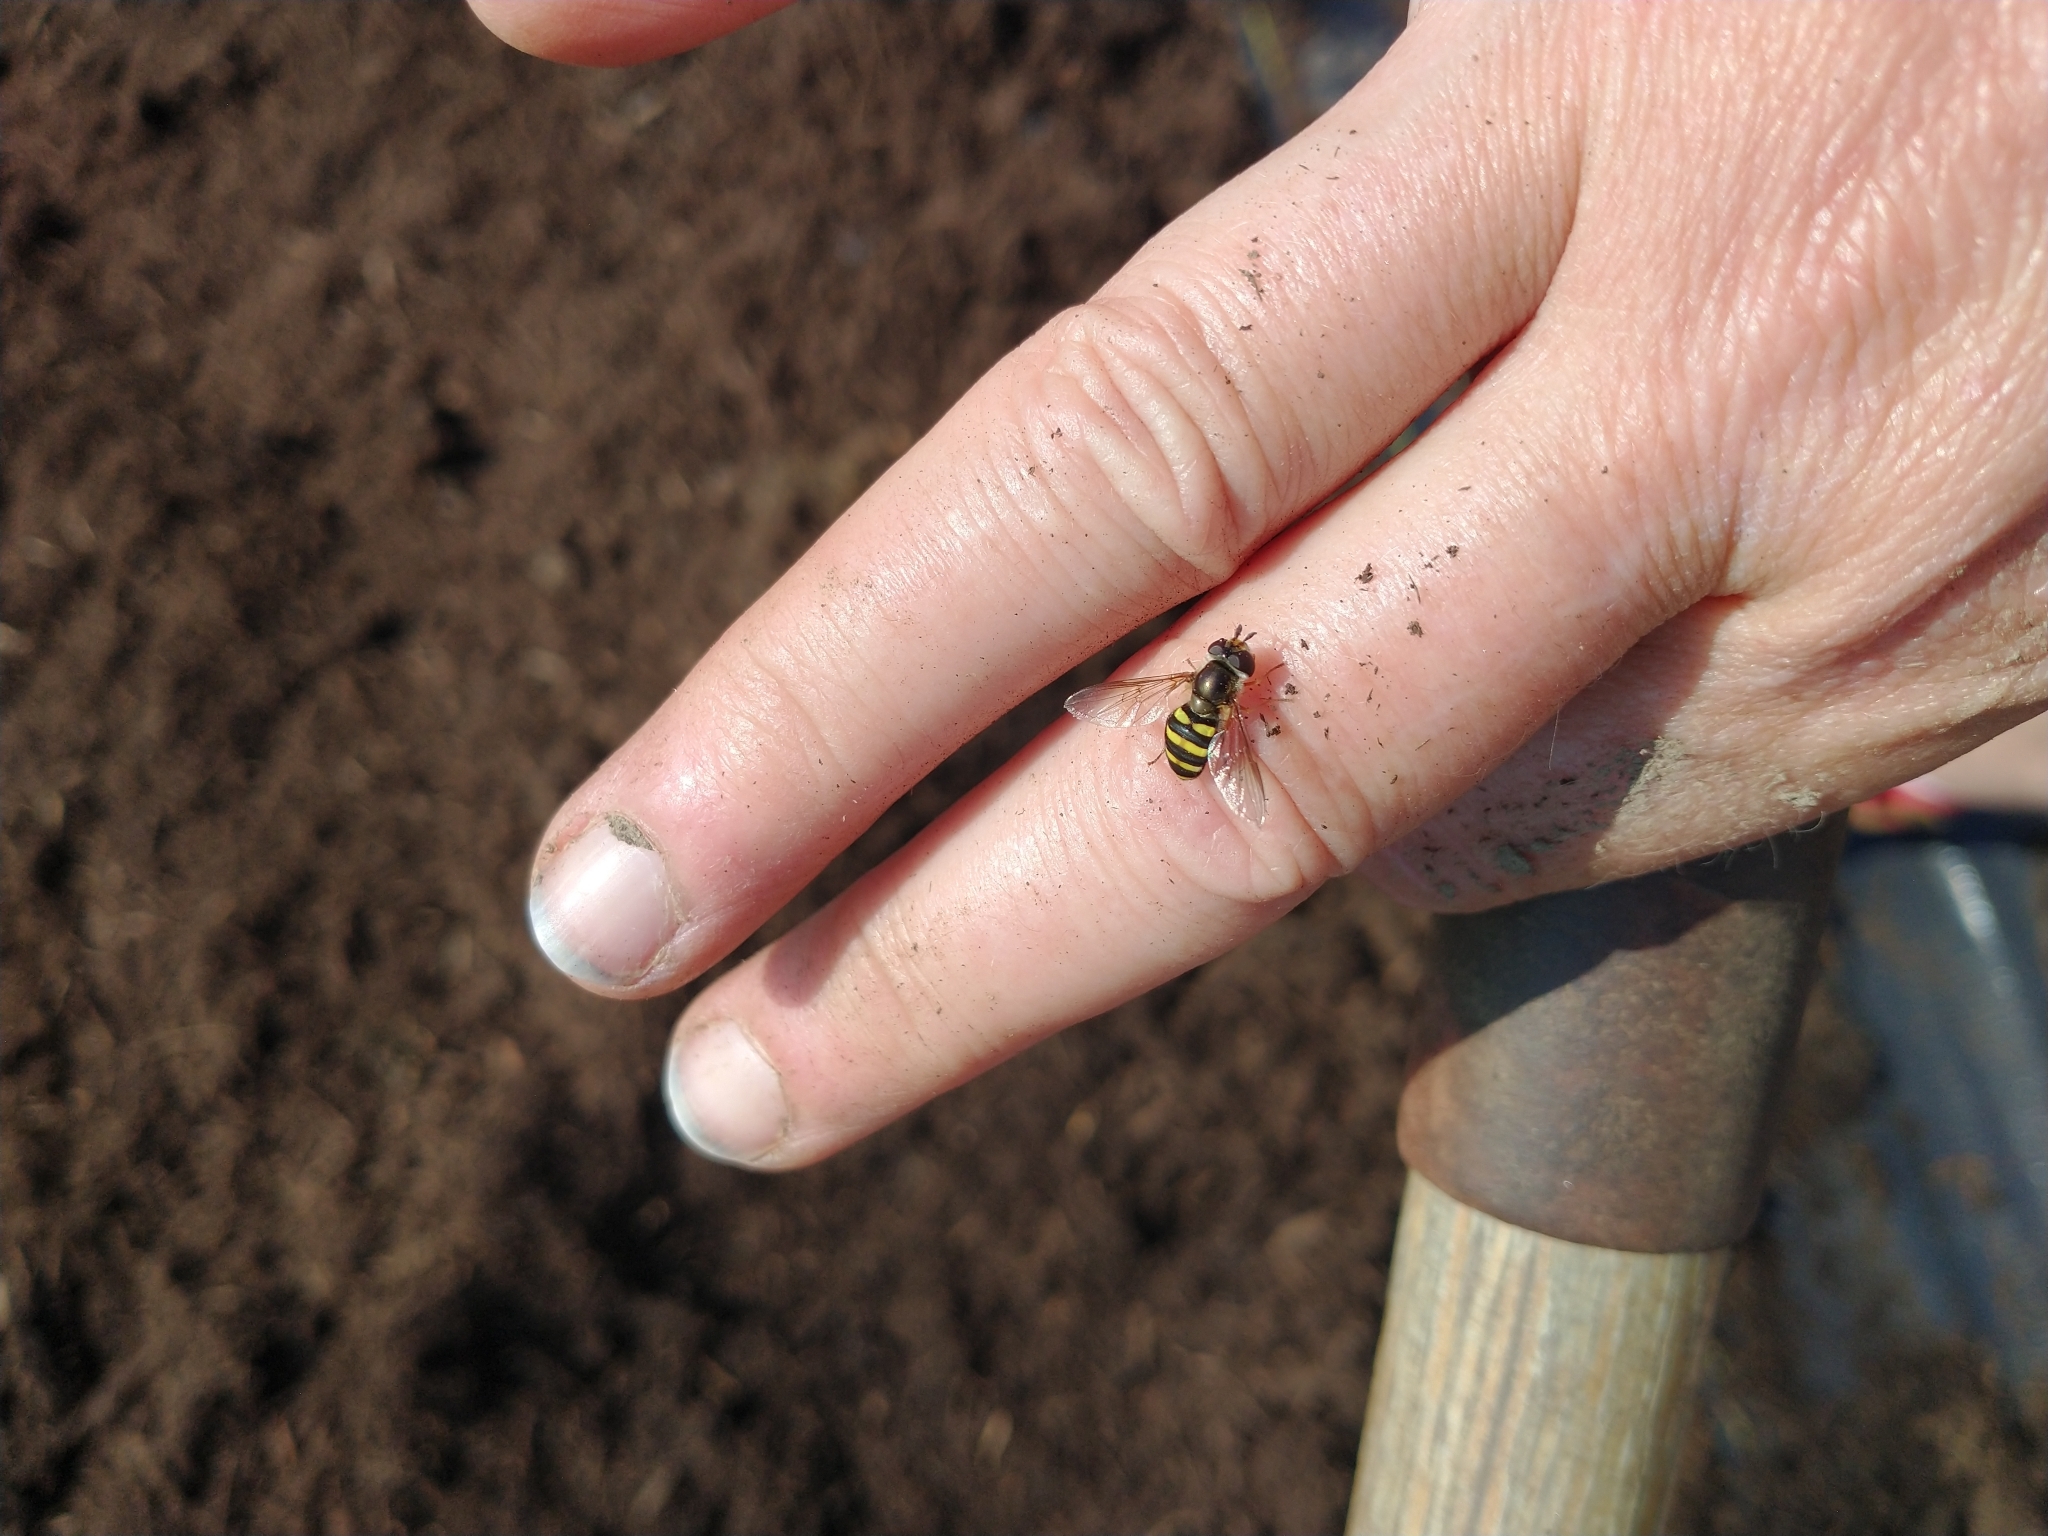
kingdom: Animalia
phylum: Arthropoda
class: Insecta
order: Diptera
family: Syrphidae
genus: Eupeodes
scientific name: Eupeodes
